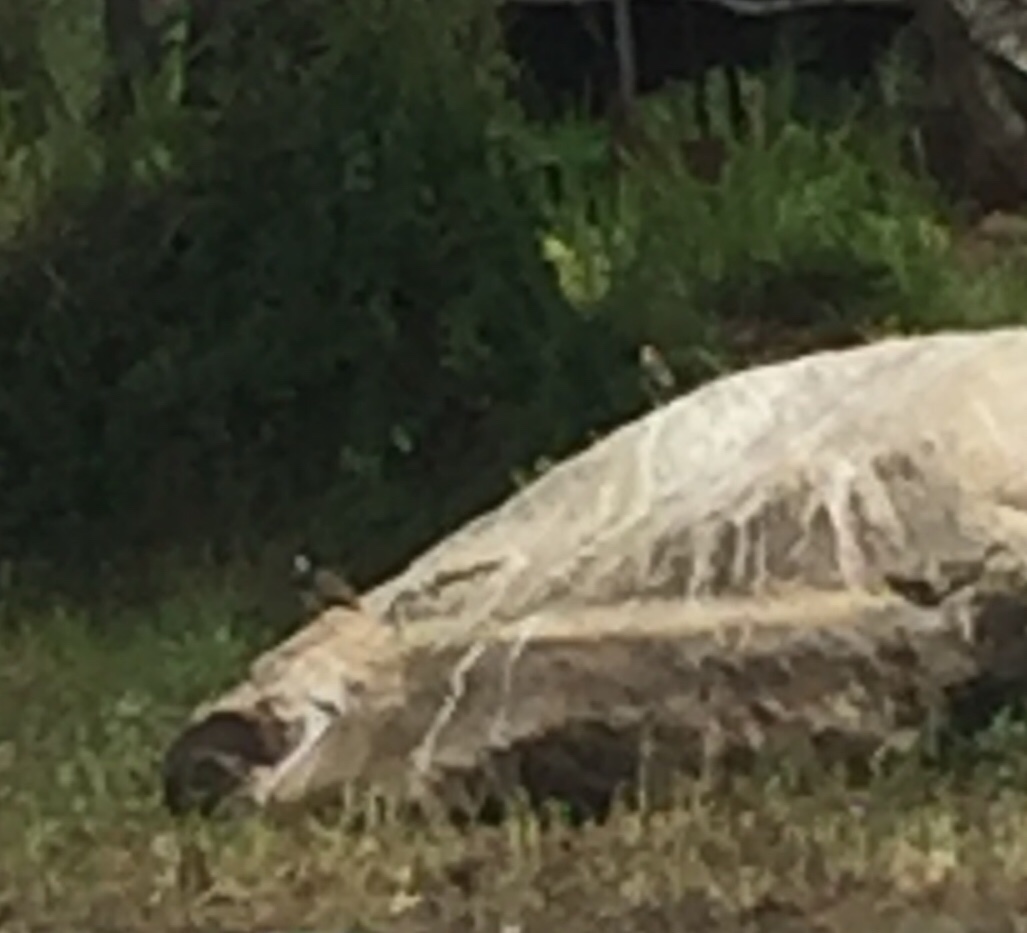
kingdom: Animalia
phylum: Chordata
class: Aves
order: Charadriiformes
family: Charadriidae
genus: Vanellus
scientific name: Vanellus indicus
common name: Red-wattled lapwing
